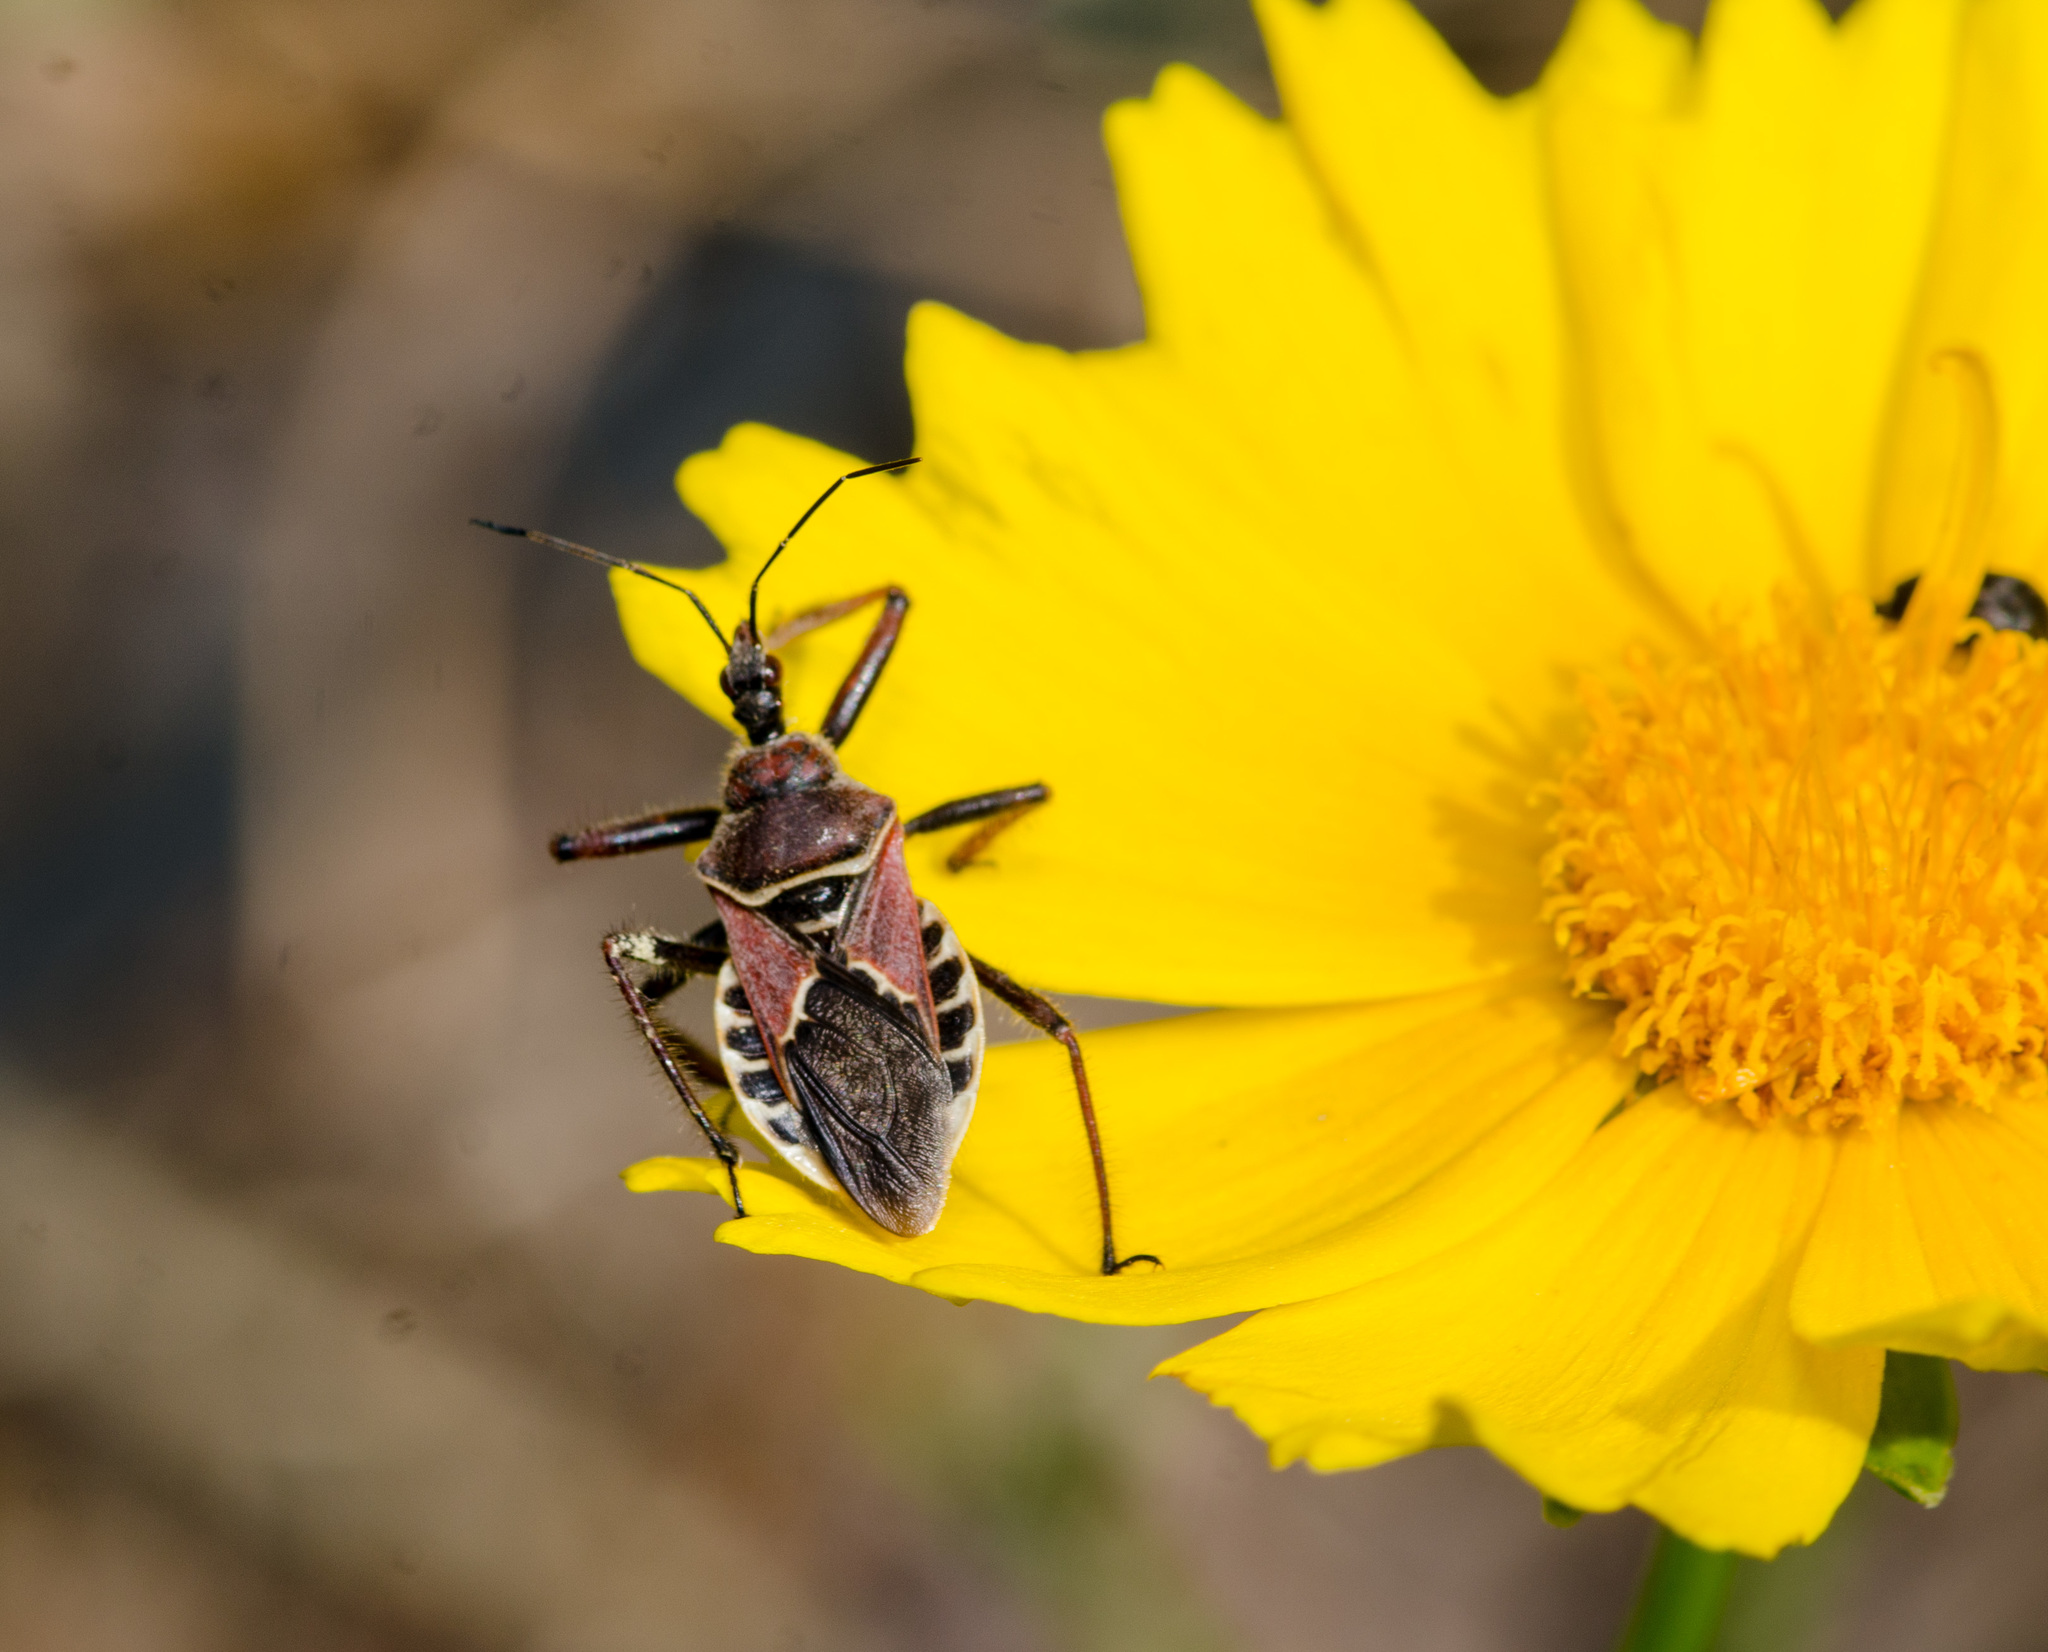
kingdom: Animalia
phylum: Arthropoda
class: Insecta
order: Hemiptera
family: Reduviidae
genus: Apiomerus
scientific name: Apiomerus spissipes
